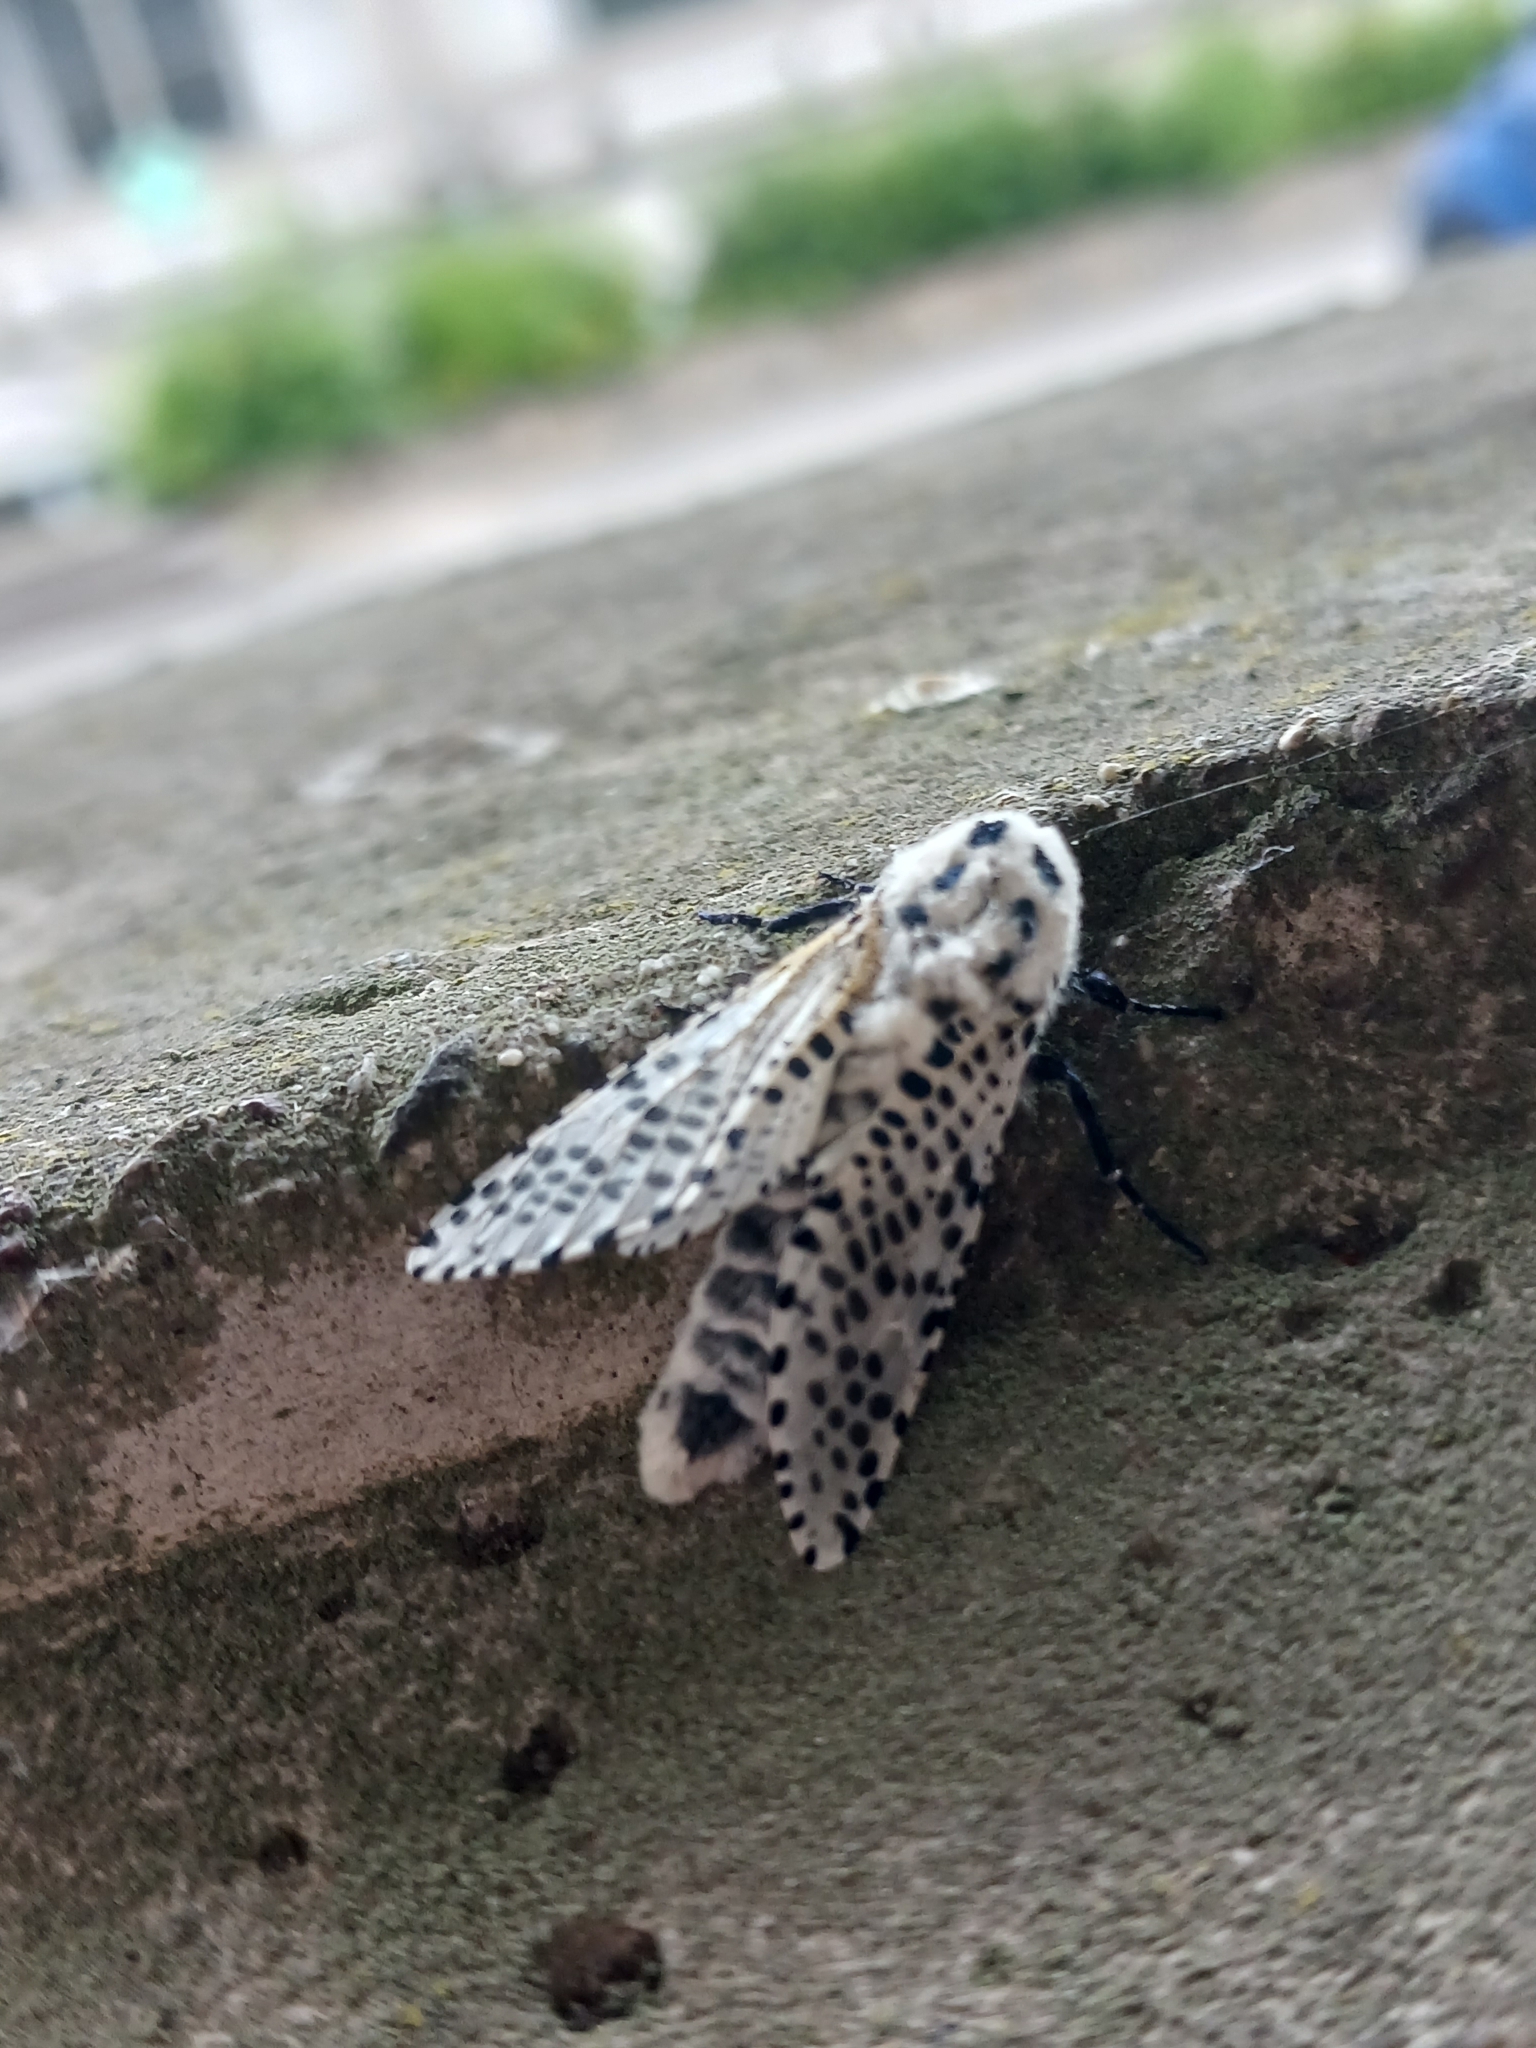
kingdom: Animalia
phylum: Arthropoda
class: Insecta
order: Lepidoptera
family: Cossidae
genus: Zeuzera
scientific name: Zeuzera pyrina
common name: Leopard moth
